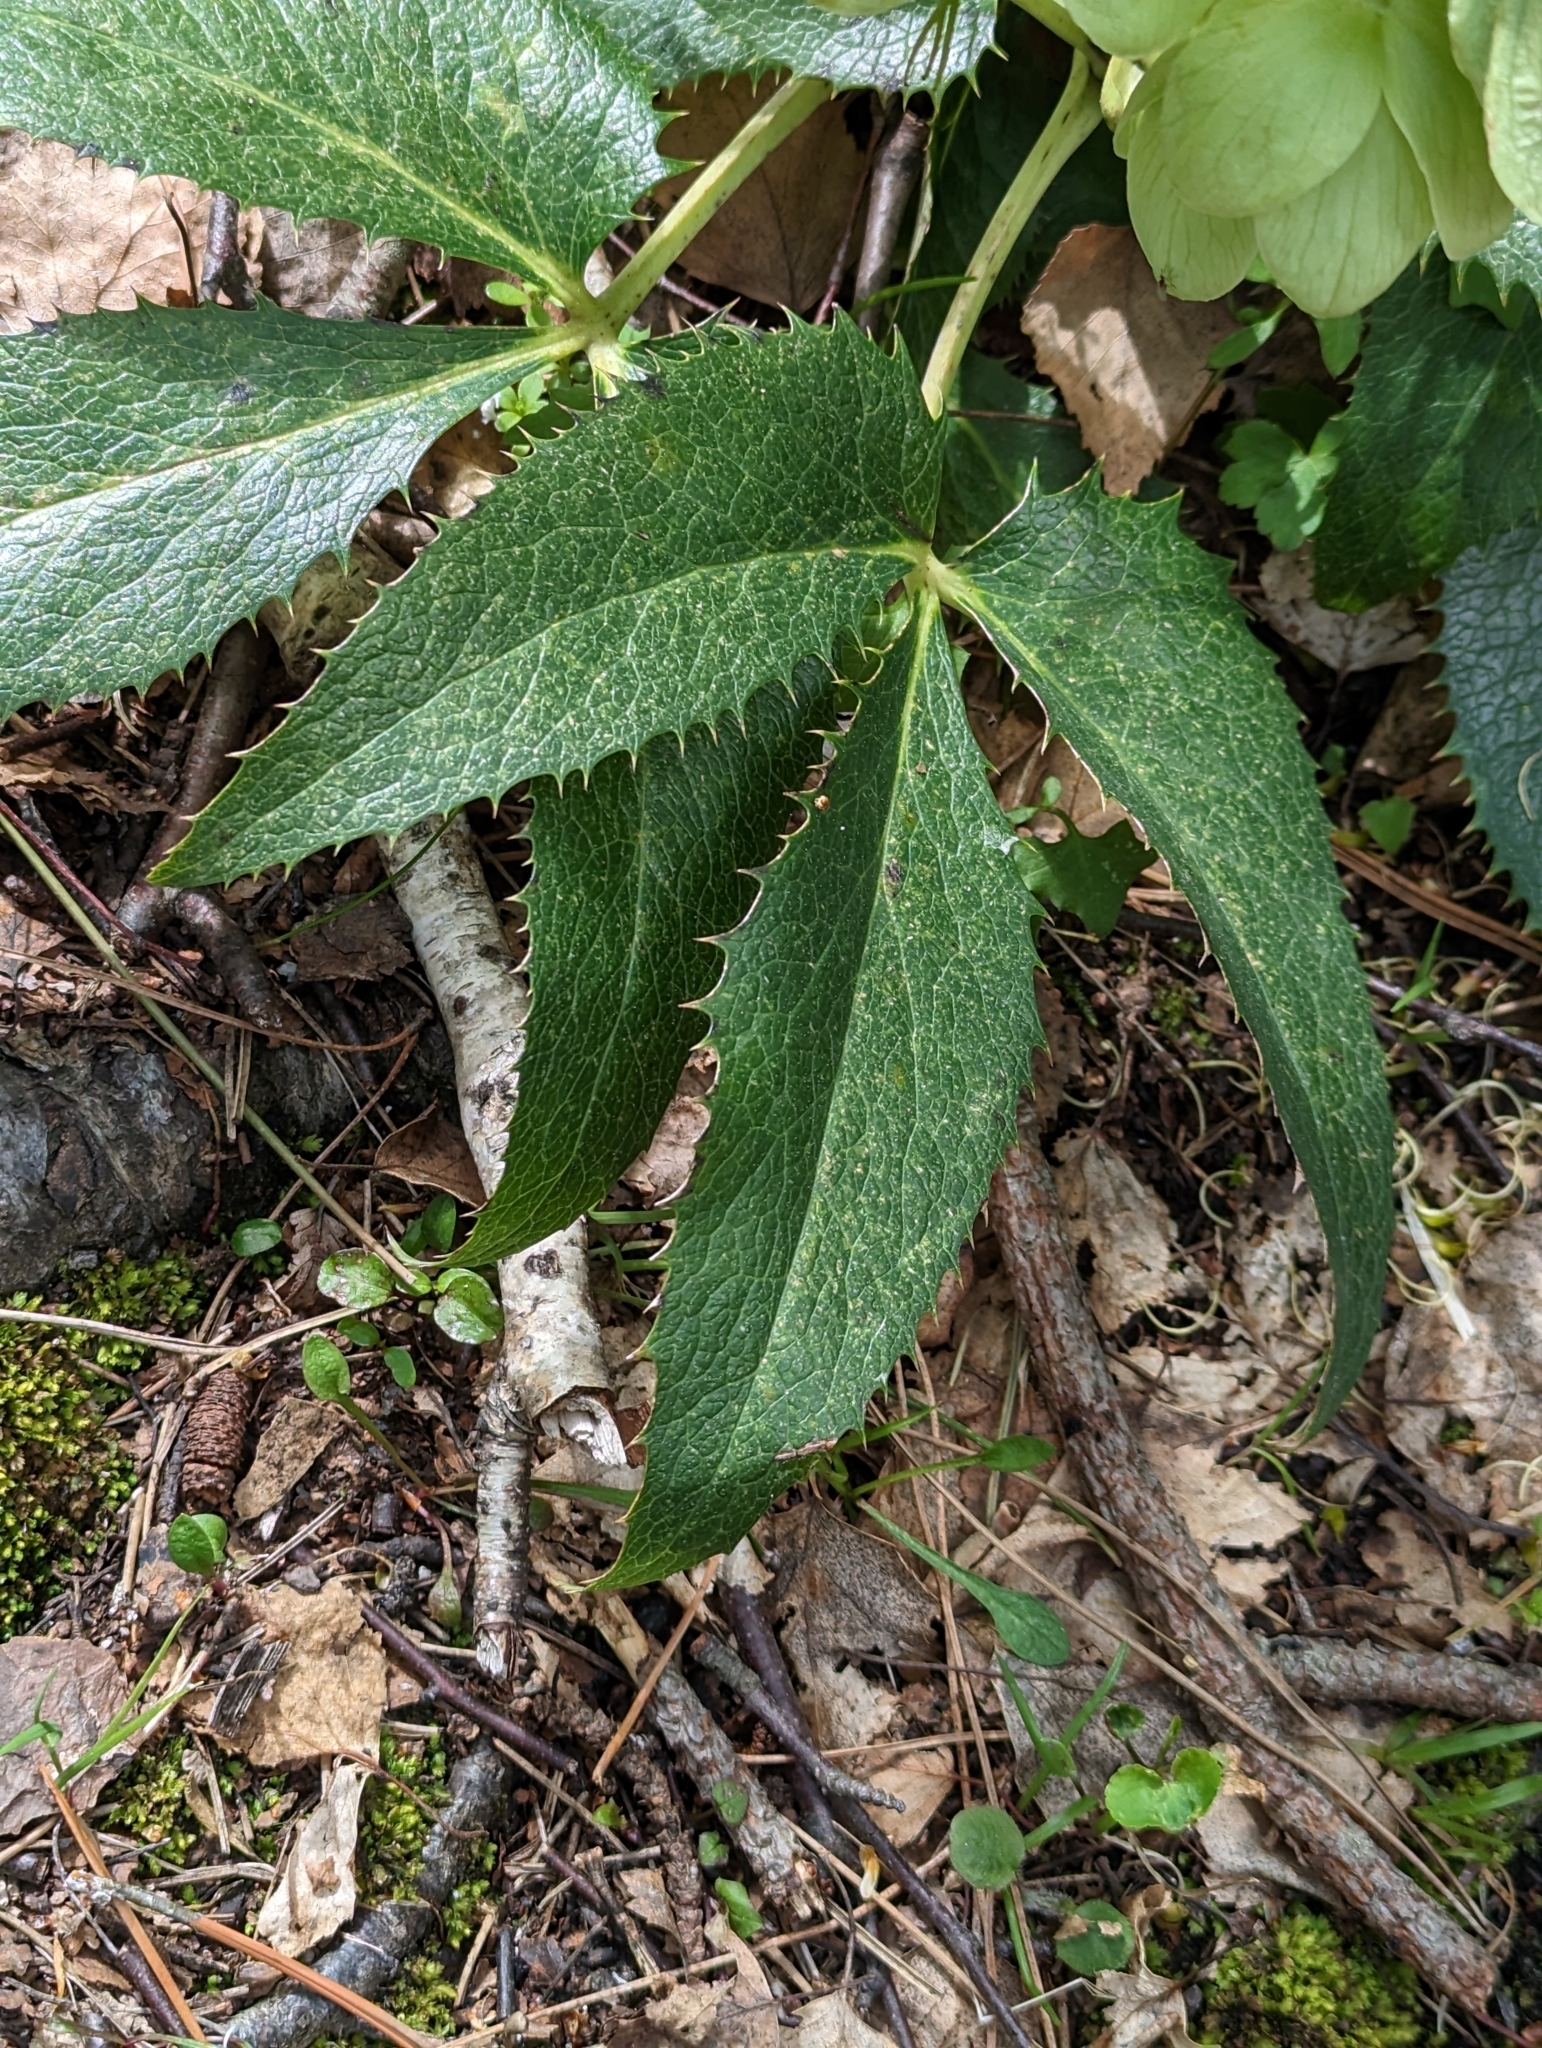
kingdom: Plantae
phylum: Tracheophyta
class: Magnoliopsida
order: Ranunculales
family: Ranunculaceae
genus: Helleborus
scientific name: Helleborus argutifolius
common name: Corsican hellebore
